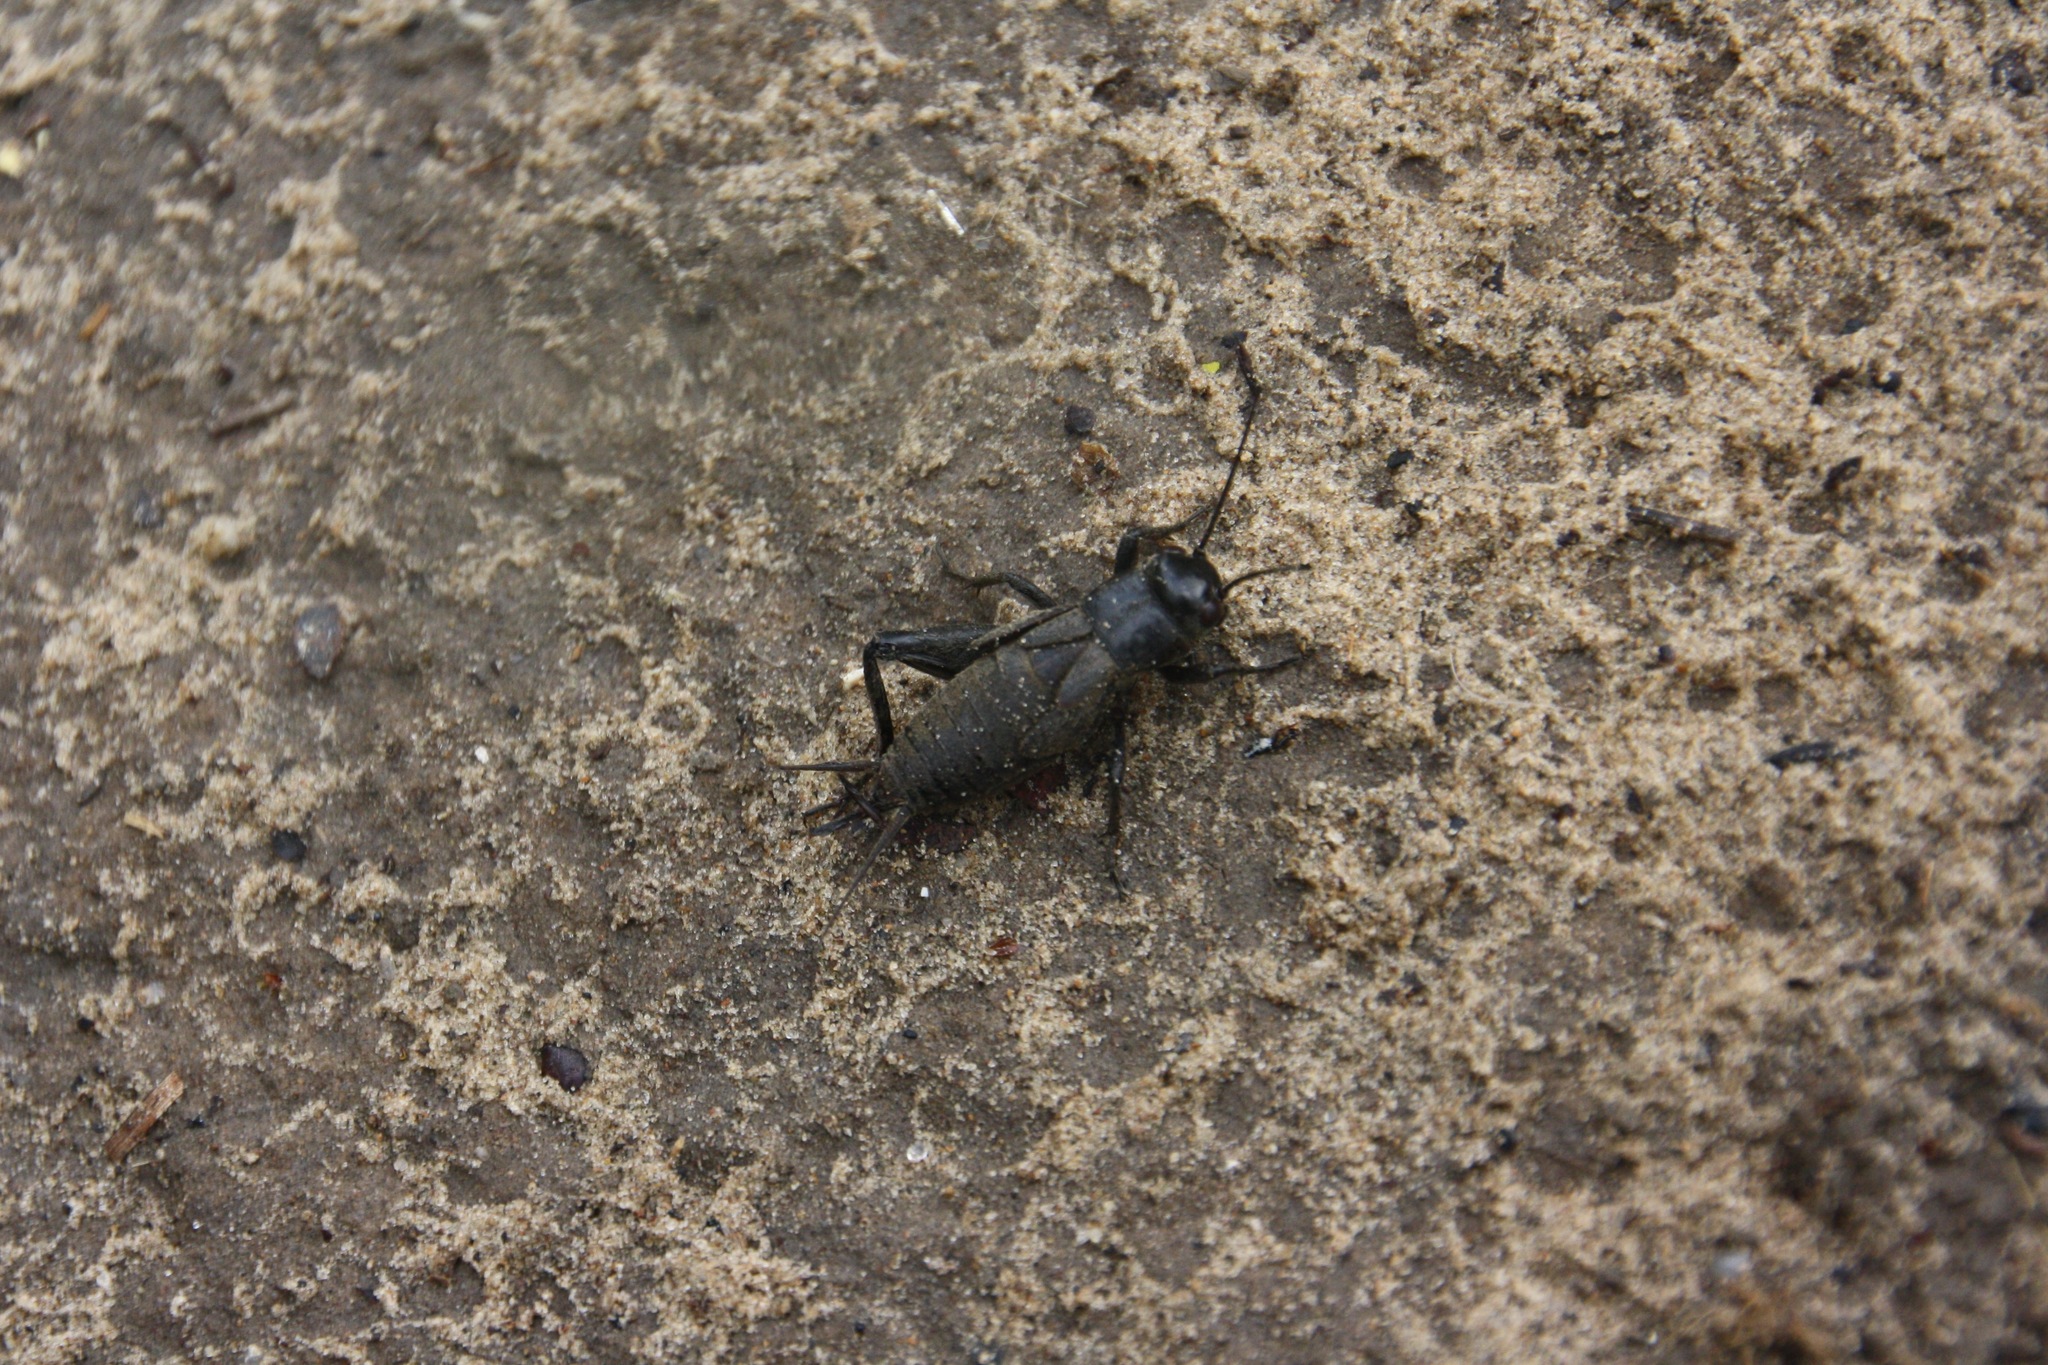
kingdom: Animalia
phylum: Arthropoda
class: Insecta
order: Orthoptera
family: Gryllidae
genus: Gryllus
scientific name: Gryllus bimaculatus
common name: Two-spotted cricket
